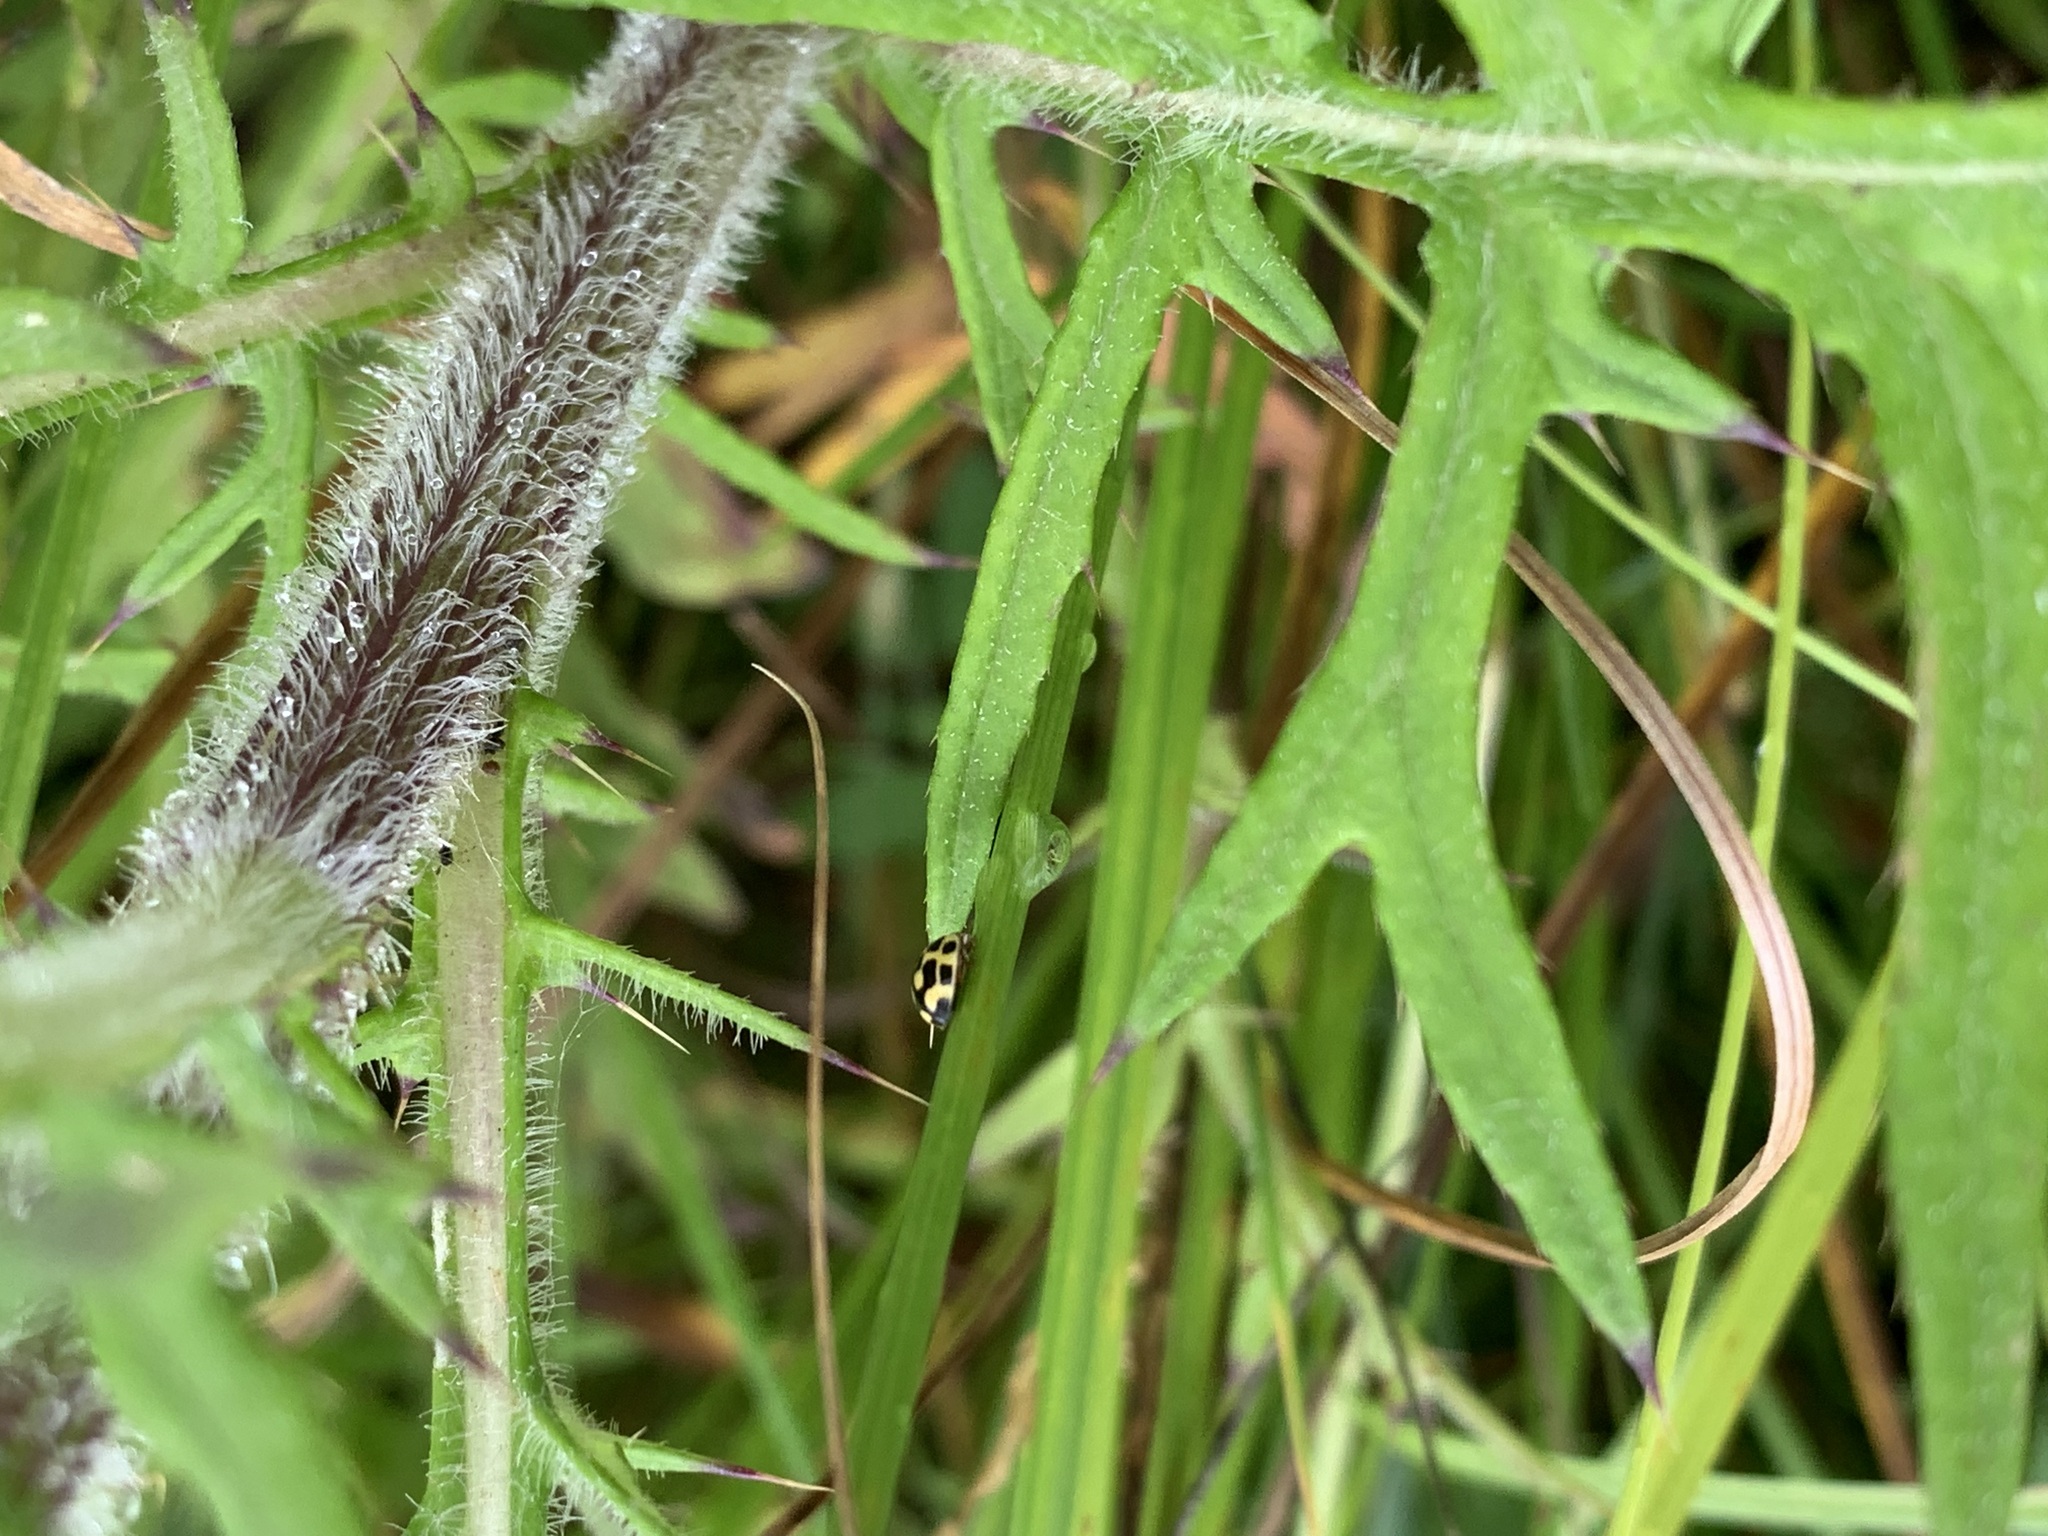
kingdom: Animalia
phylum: Arthropoda
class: Insecta
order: Coleoptera
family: Coccinellidae
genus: Propylaea
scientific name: Propylaea quatuordecimpunctata
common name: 14-spotted ladybird beetle
